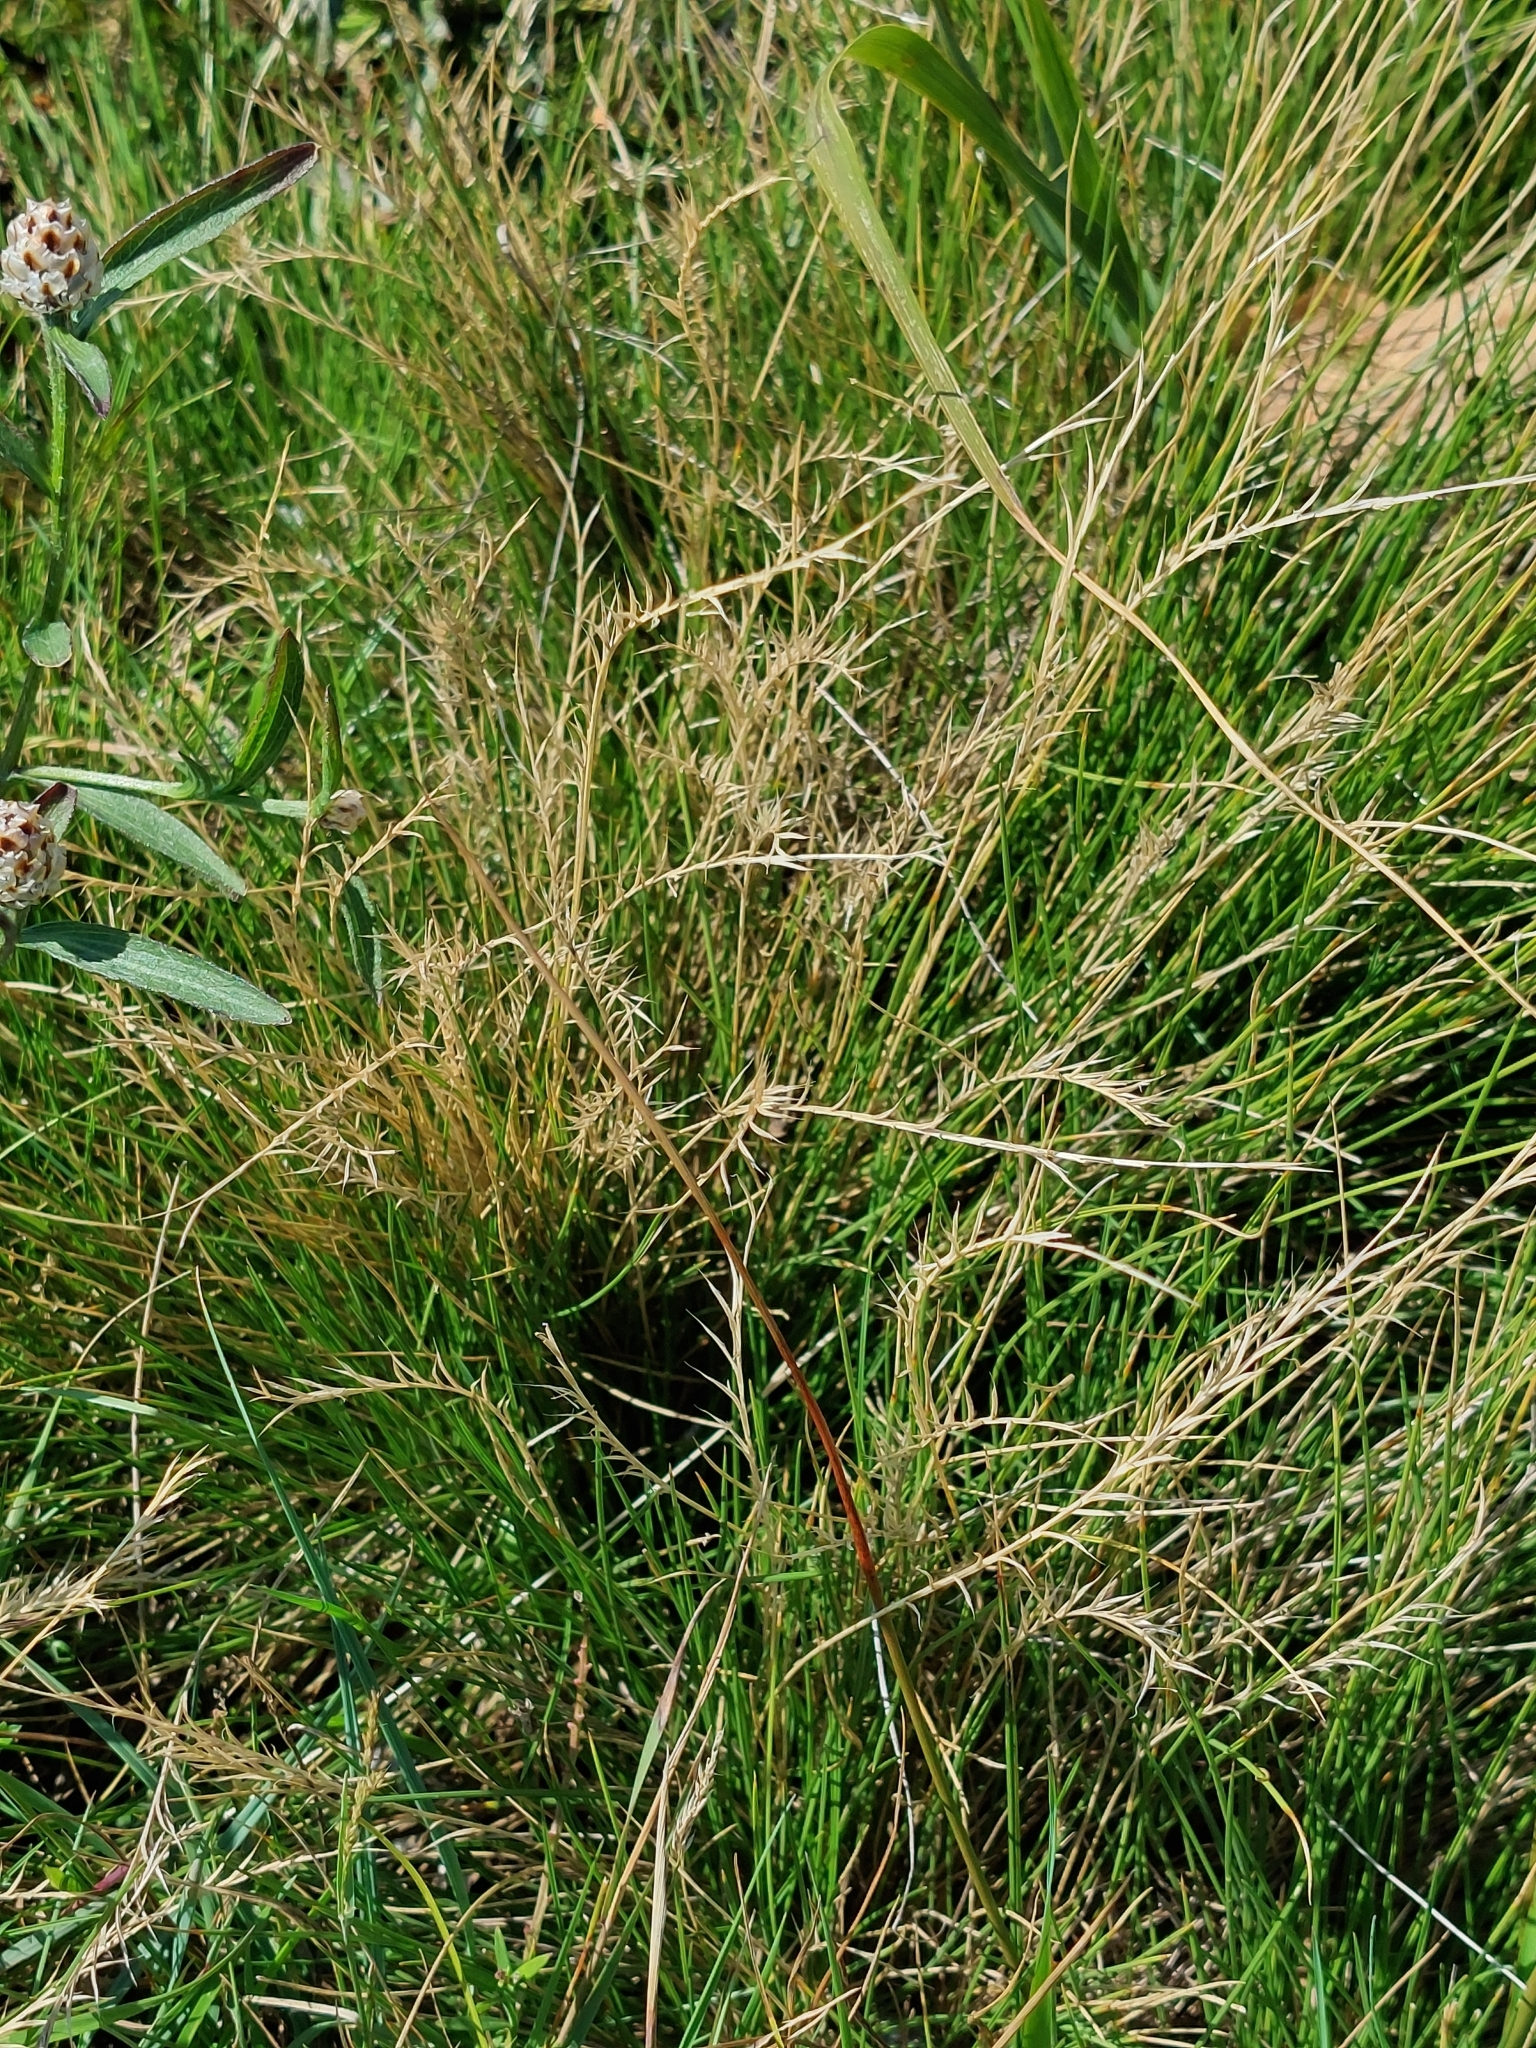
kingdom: Plantae
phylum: Tracheophyta
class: Liliopsida
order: Poales
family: Poaceae
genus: Nardus
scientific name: Nardus stricta
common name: Mat-grass
